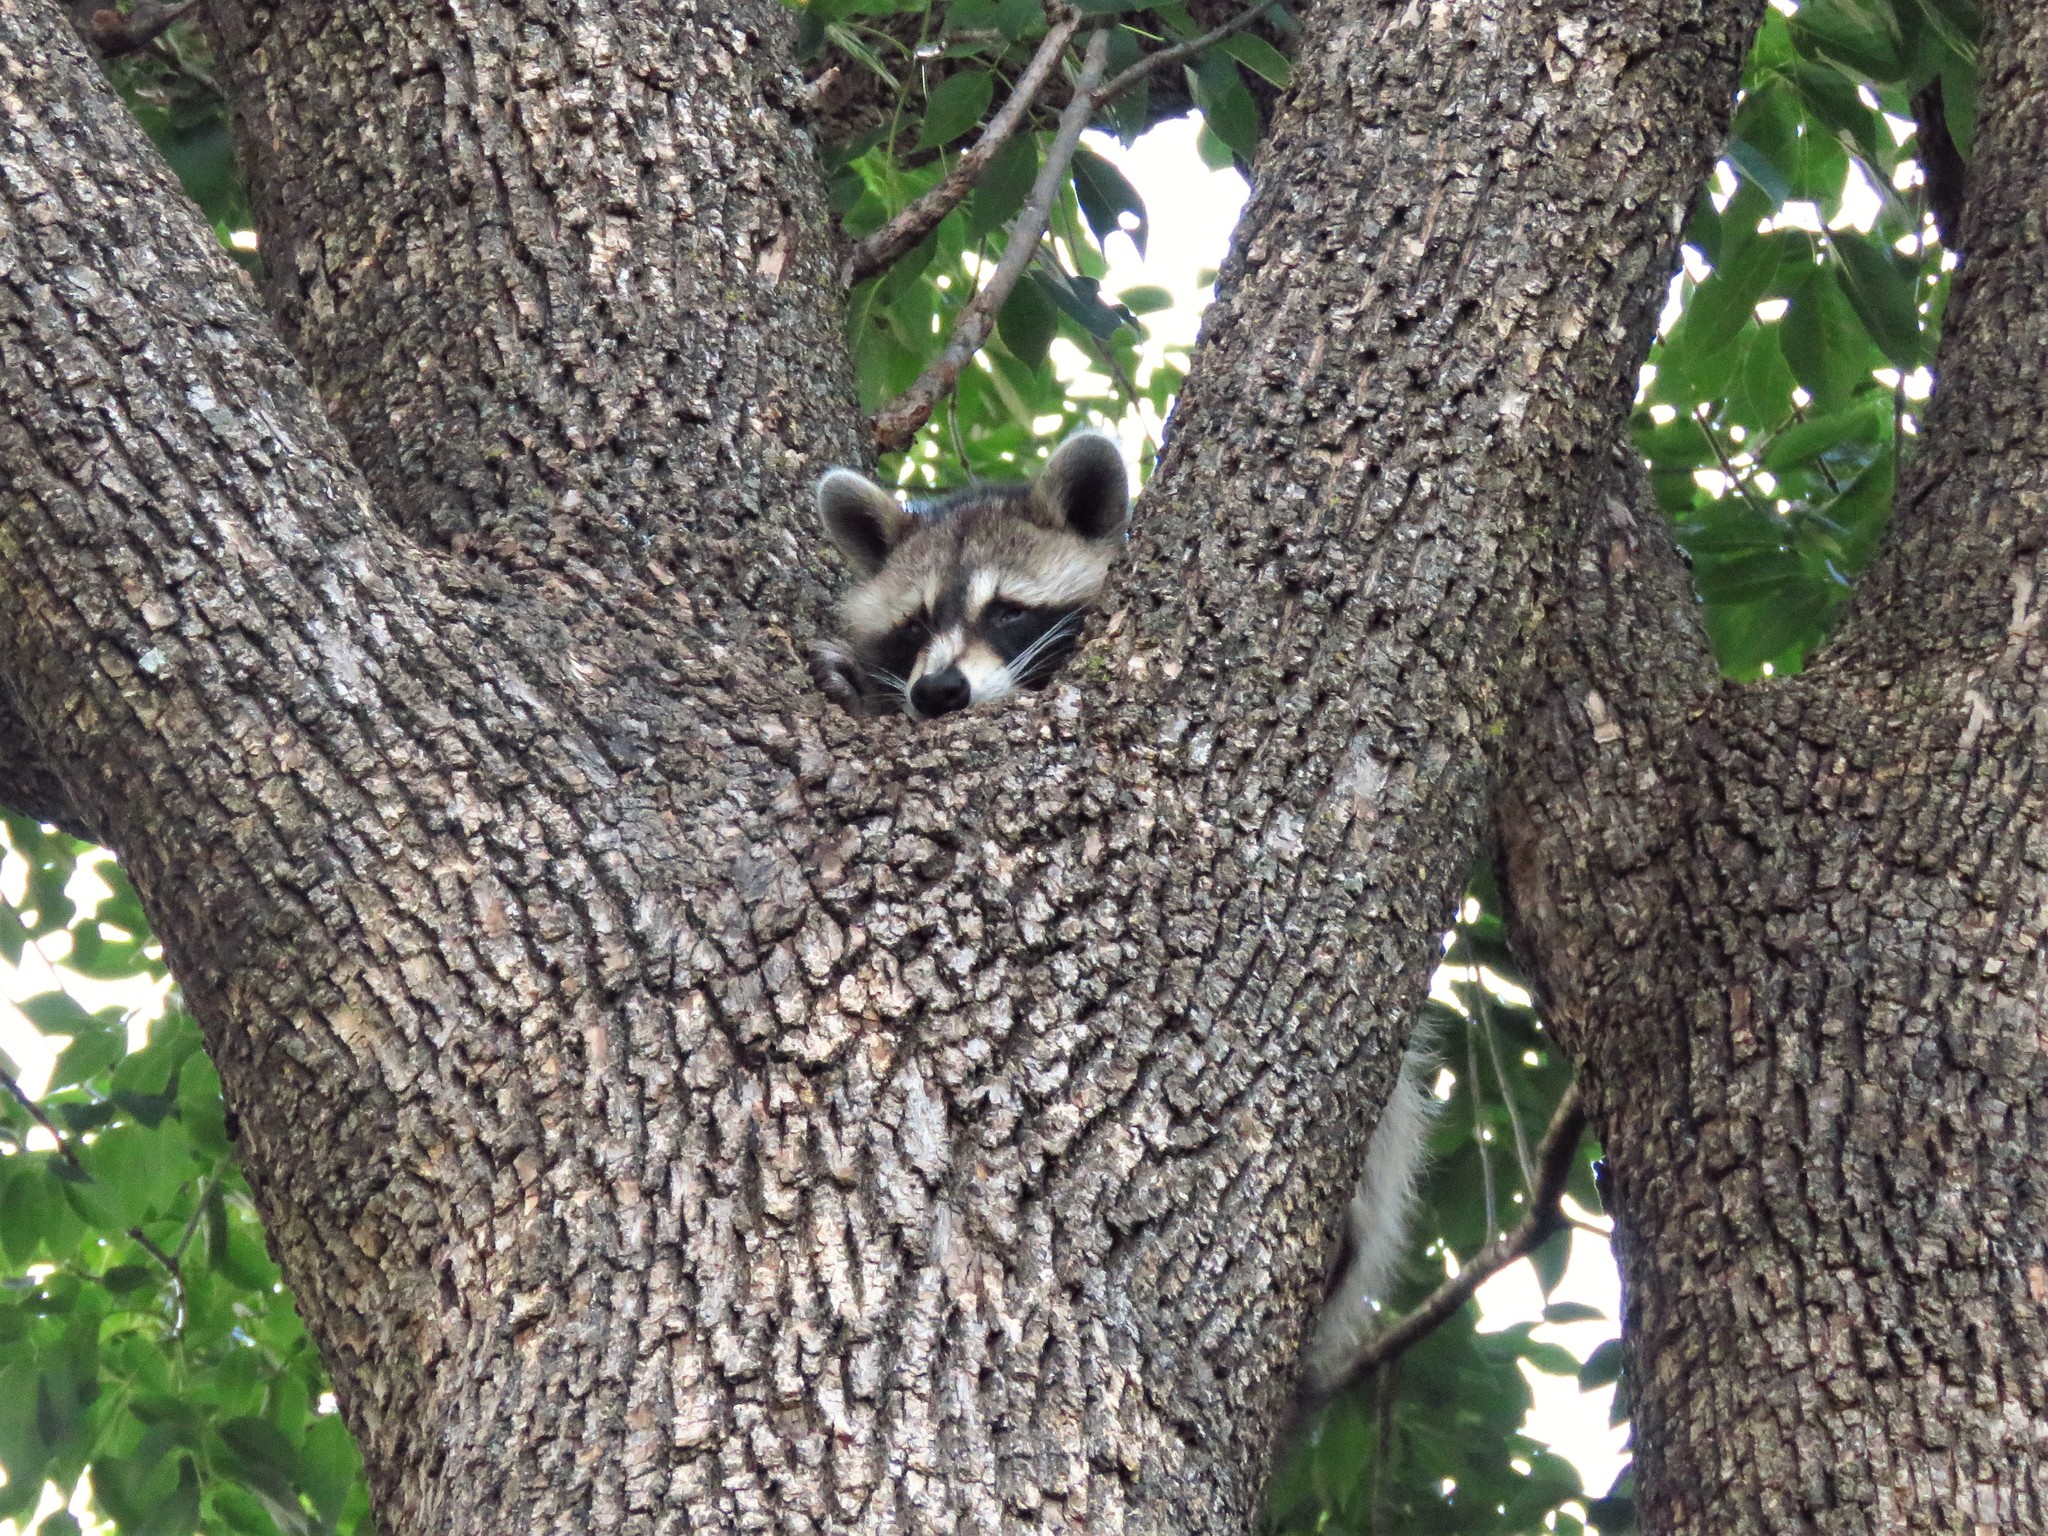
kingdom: Animalia
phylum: Chordata
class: Mammalia
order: Carnivora
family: Procyonidae
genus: Procyon
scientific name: Procyon lotor
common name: Raccoon
